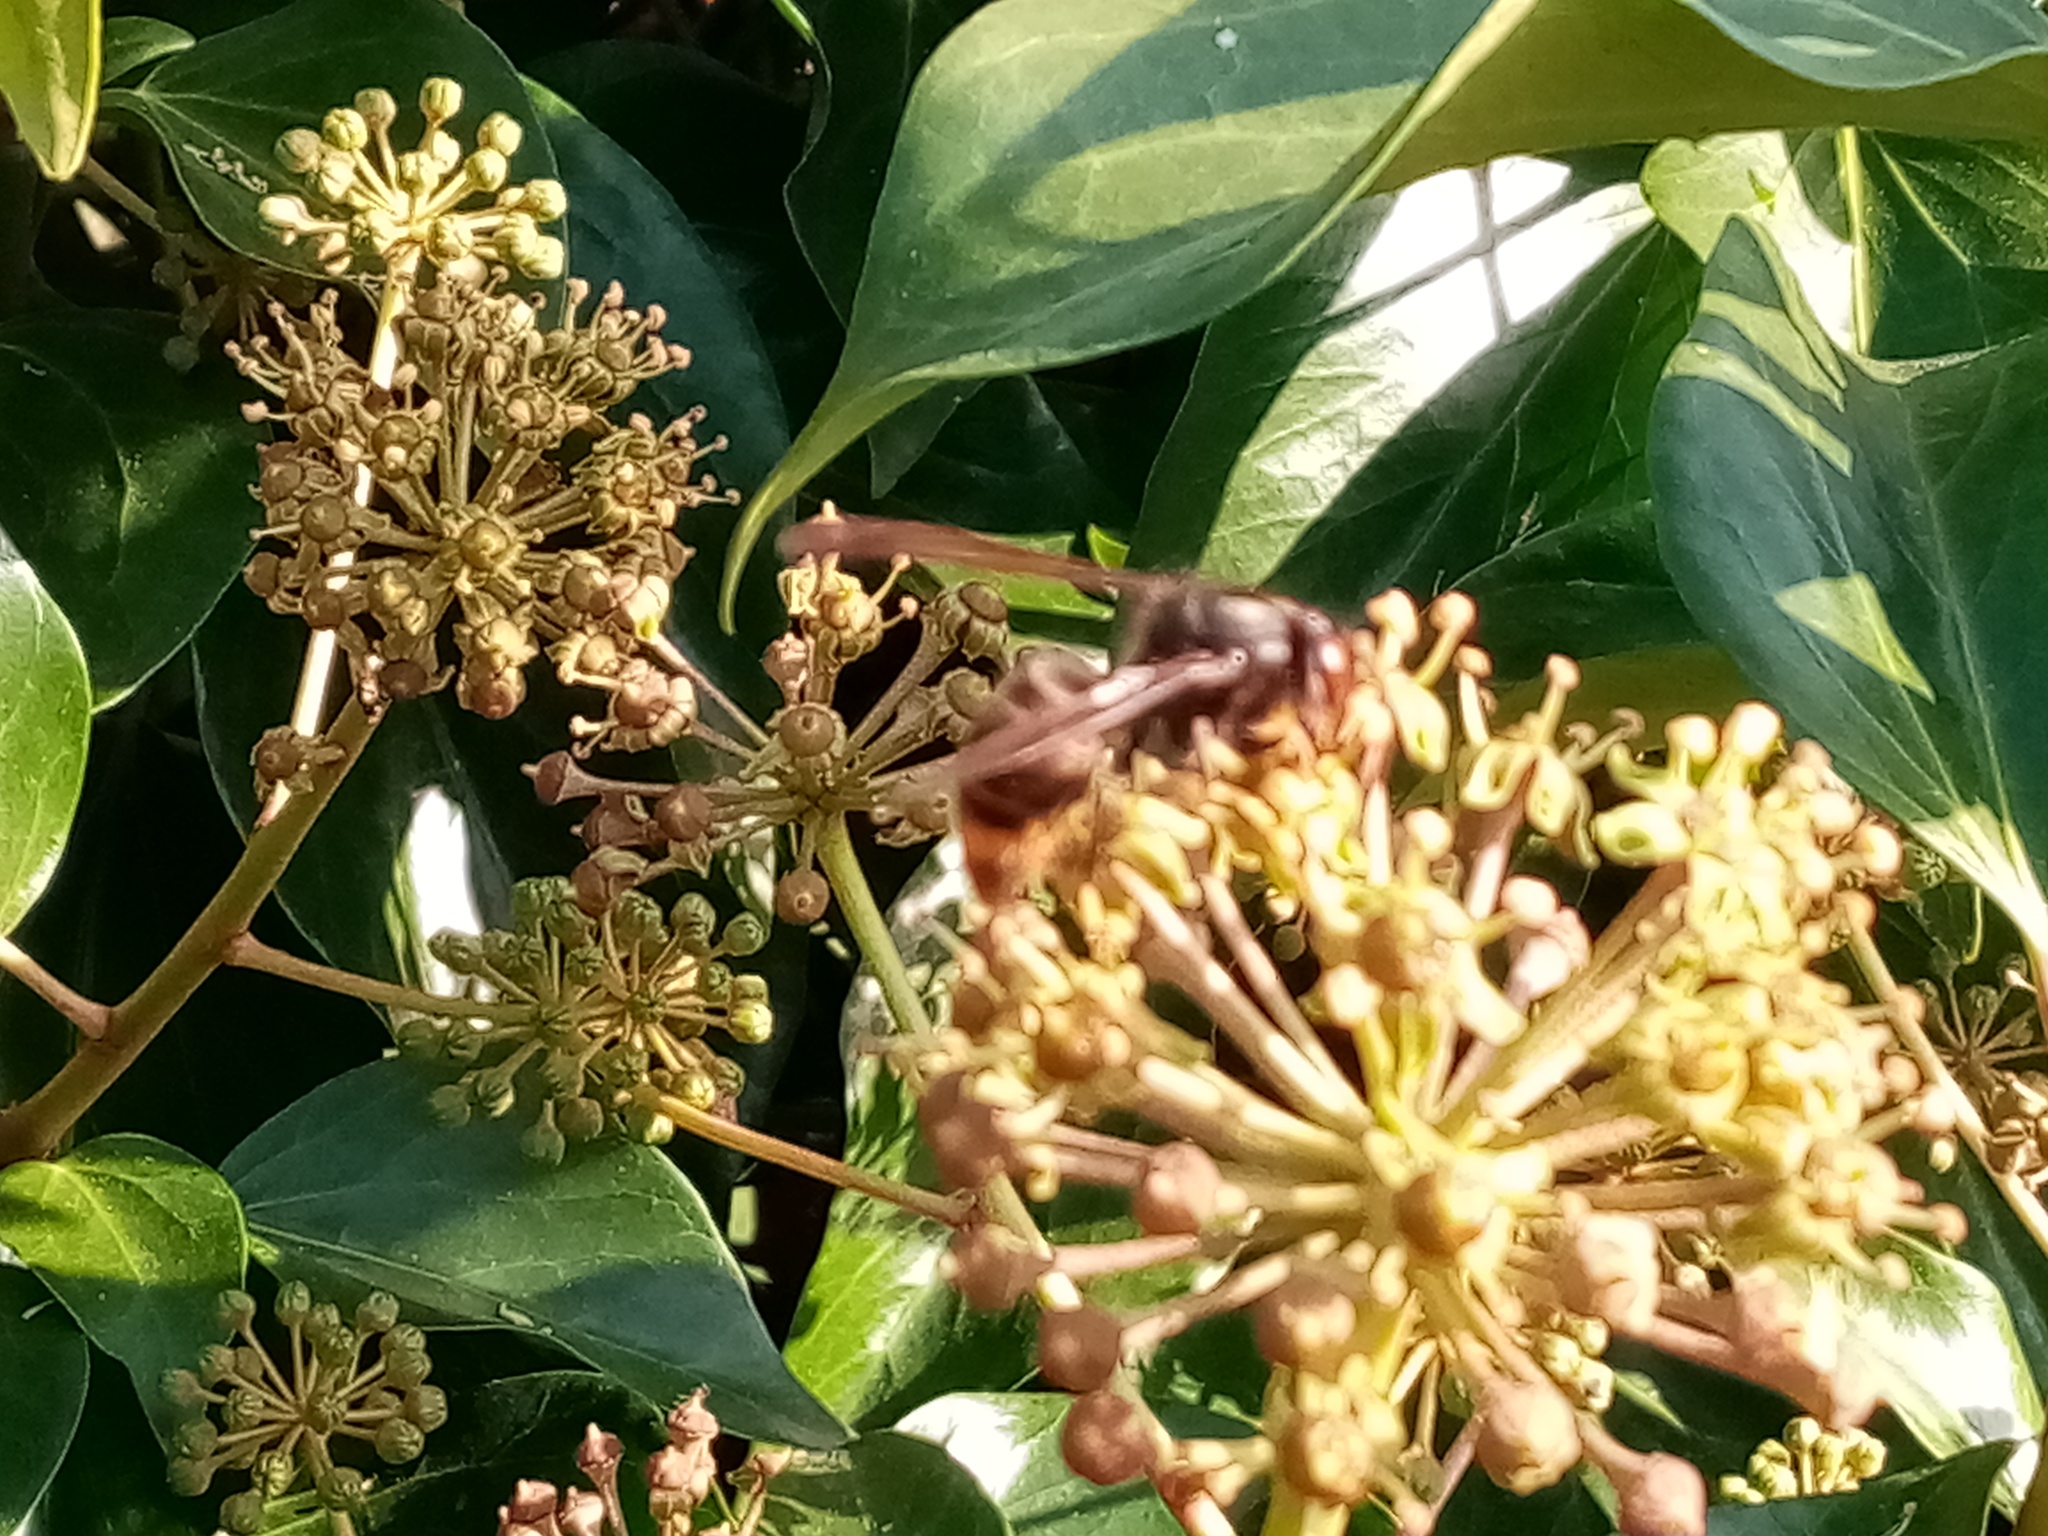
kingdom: Animalia
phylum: Arthropoda
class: Insecta
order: Hymenoptera
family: Vespidae
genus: Vespa
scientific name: Vespa velutina
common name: Asian hornet
